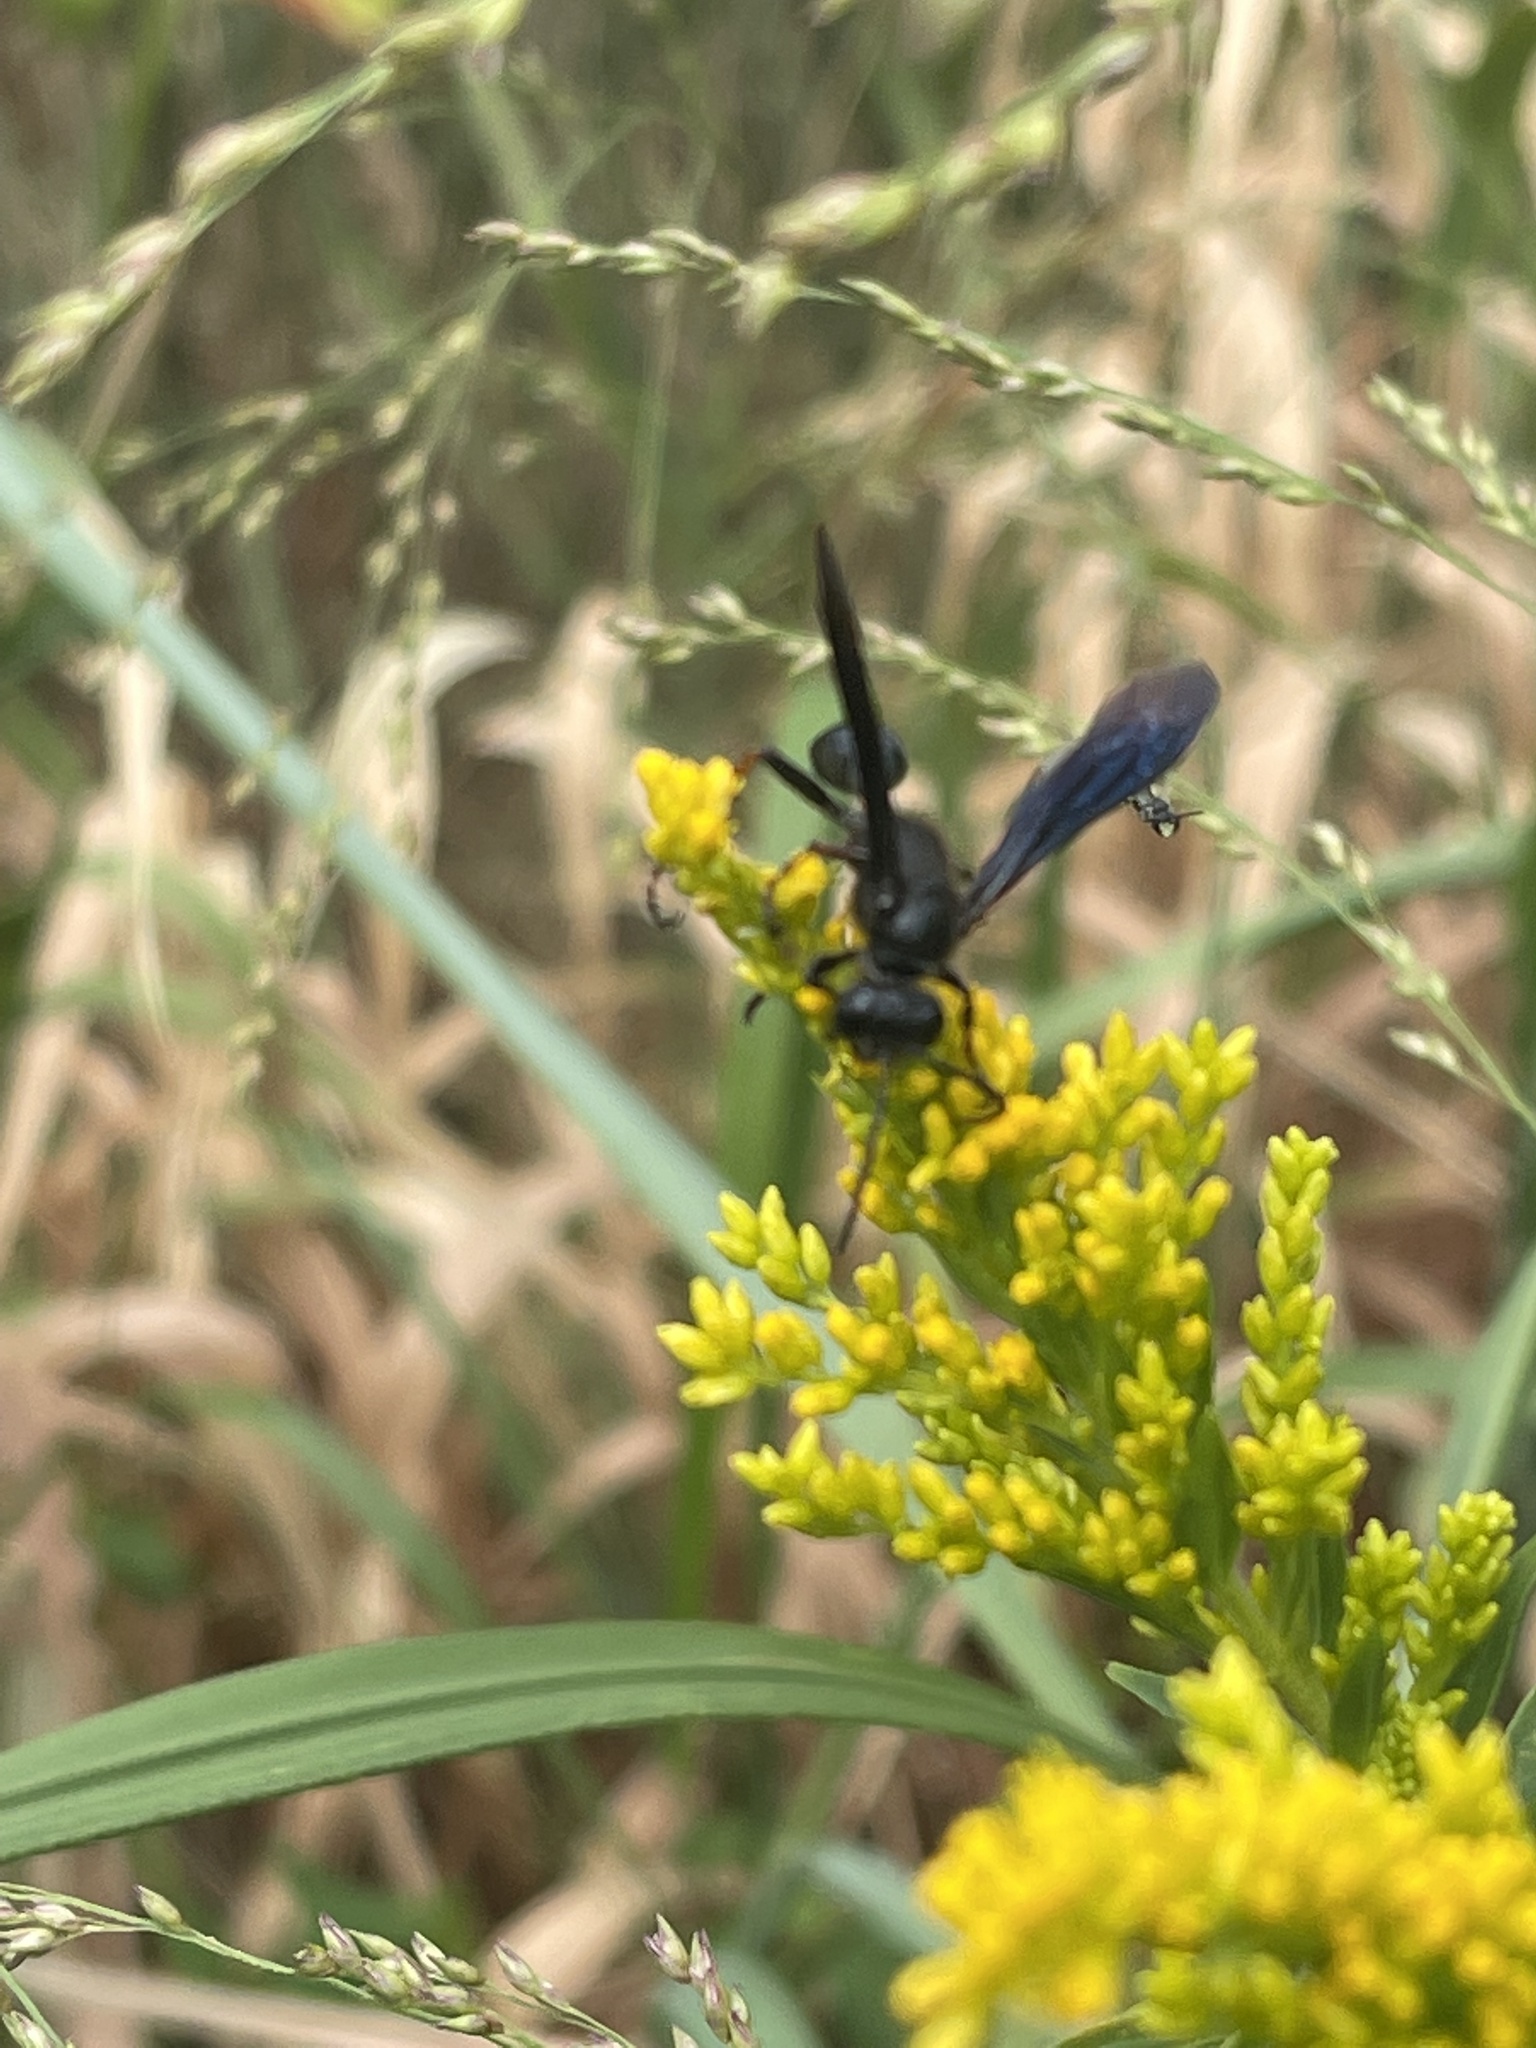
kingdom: Animalia
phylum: Arthropoda
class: Insecta
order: Hymenoptera
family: Sphecidae
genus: Isodontia
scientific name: Isodontia philadelphica
